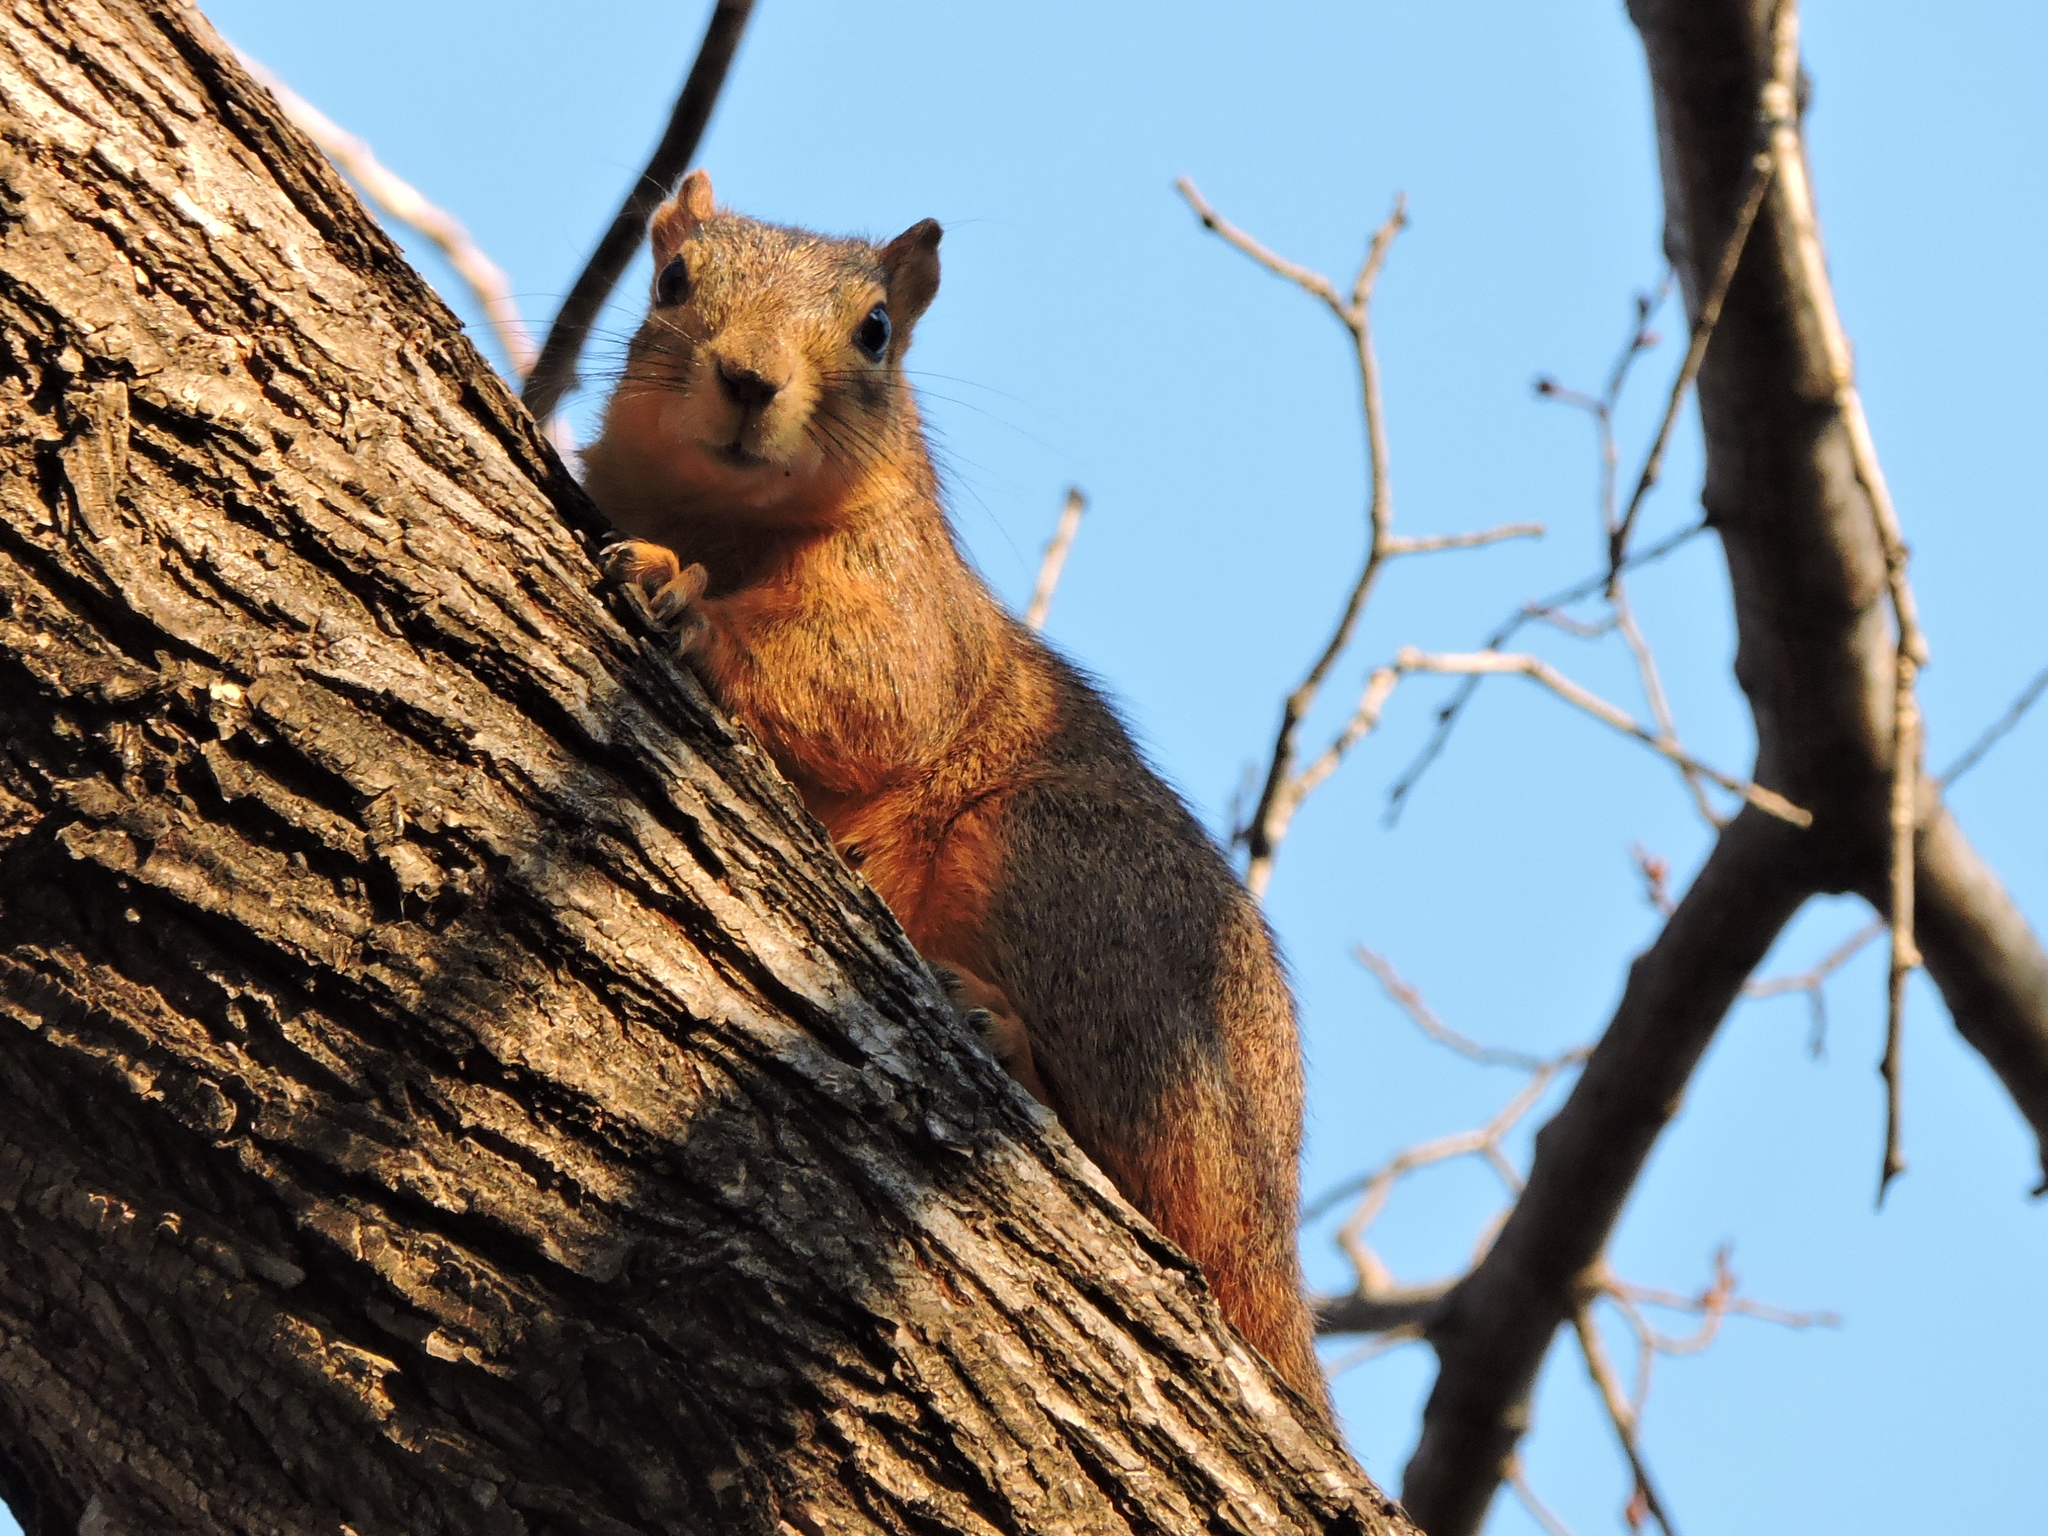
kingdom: Animalia
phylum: Chordata
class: Mammalia
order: Rodentia
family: Sciuridae
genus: Sciurus
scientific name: Sciurus niger
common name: Fox squirrel
